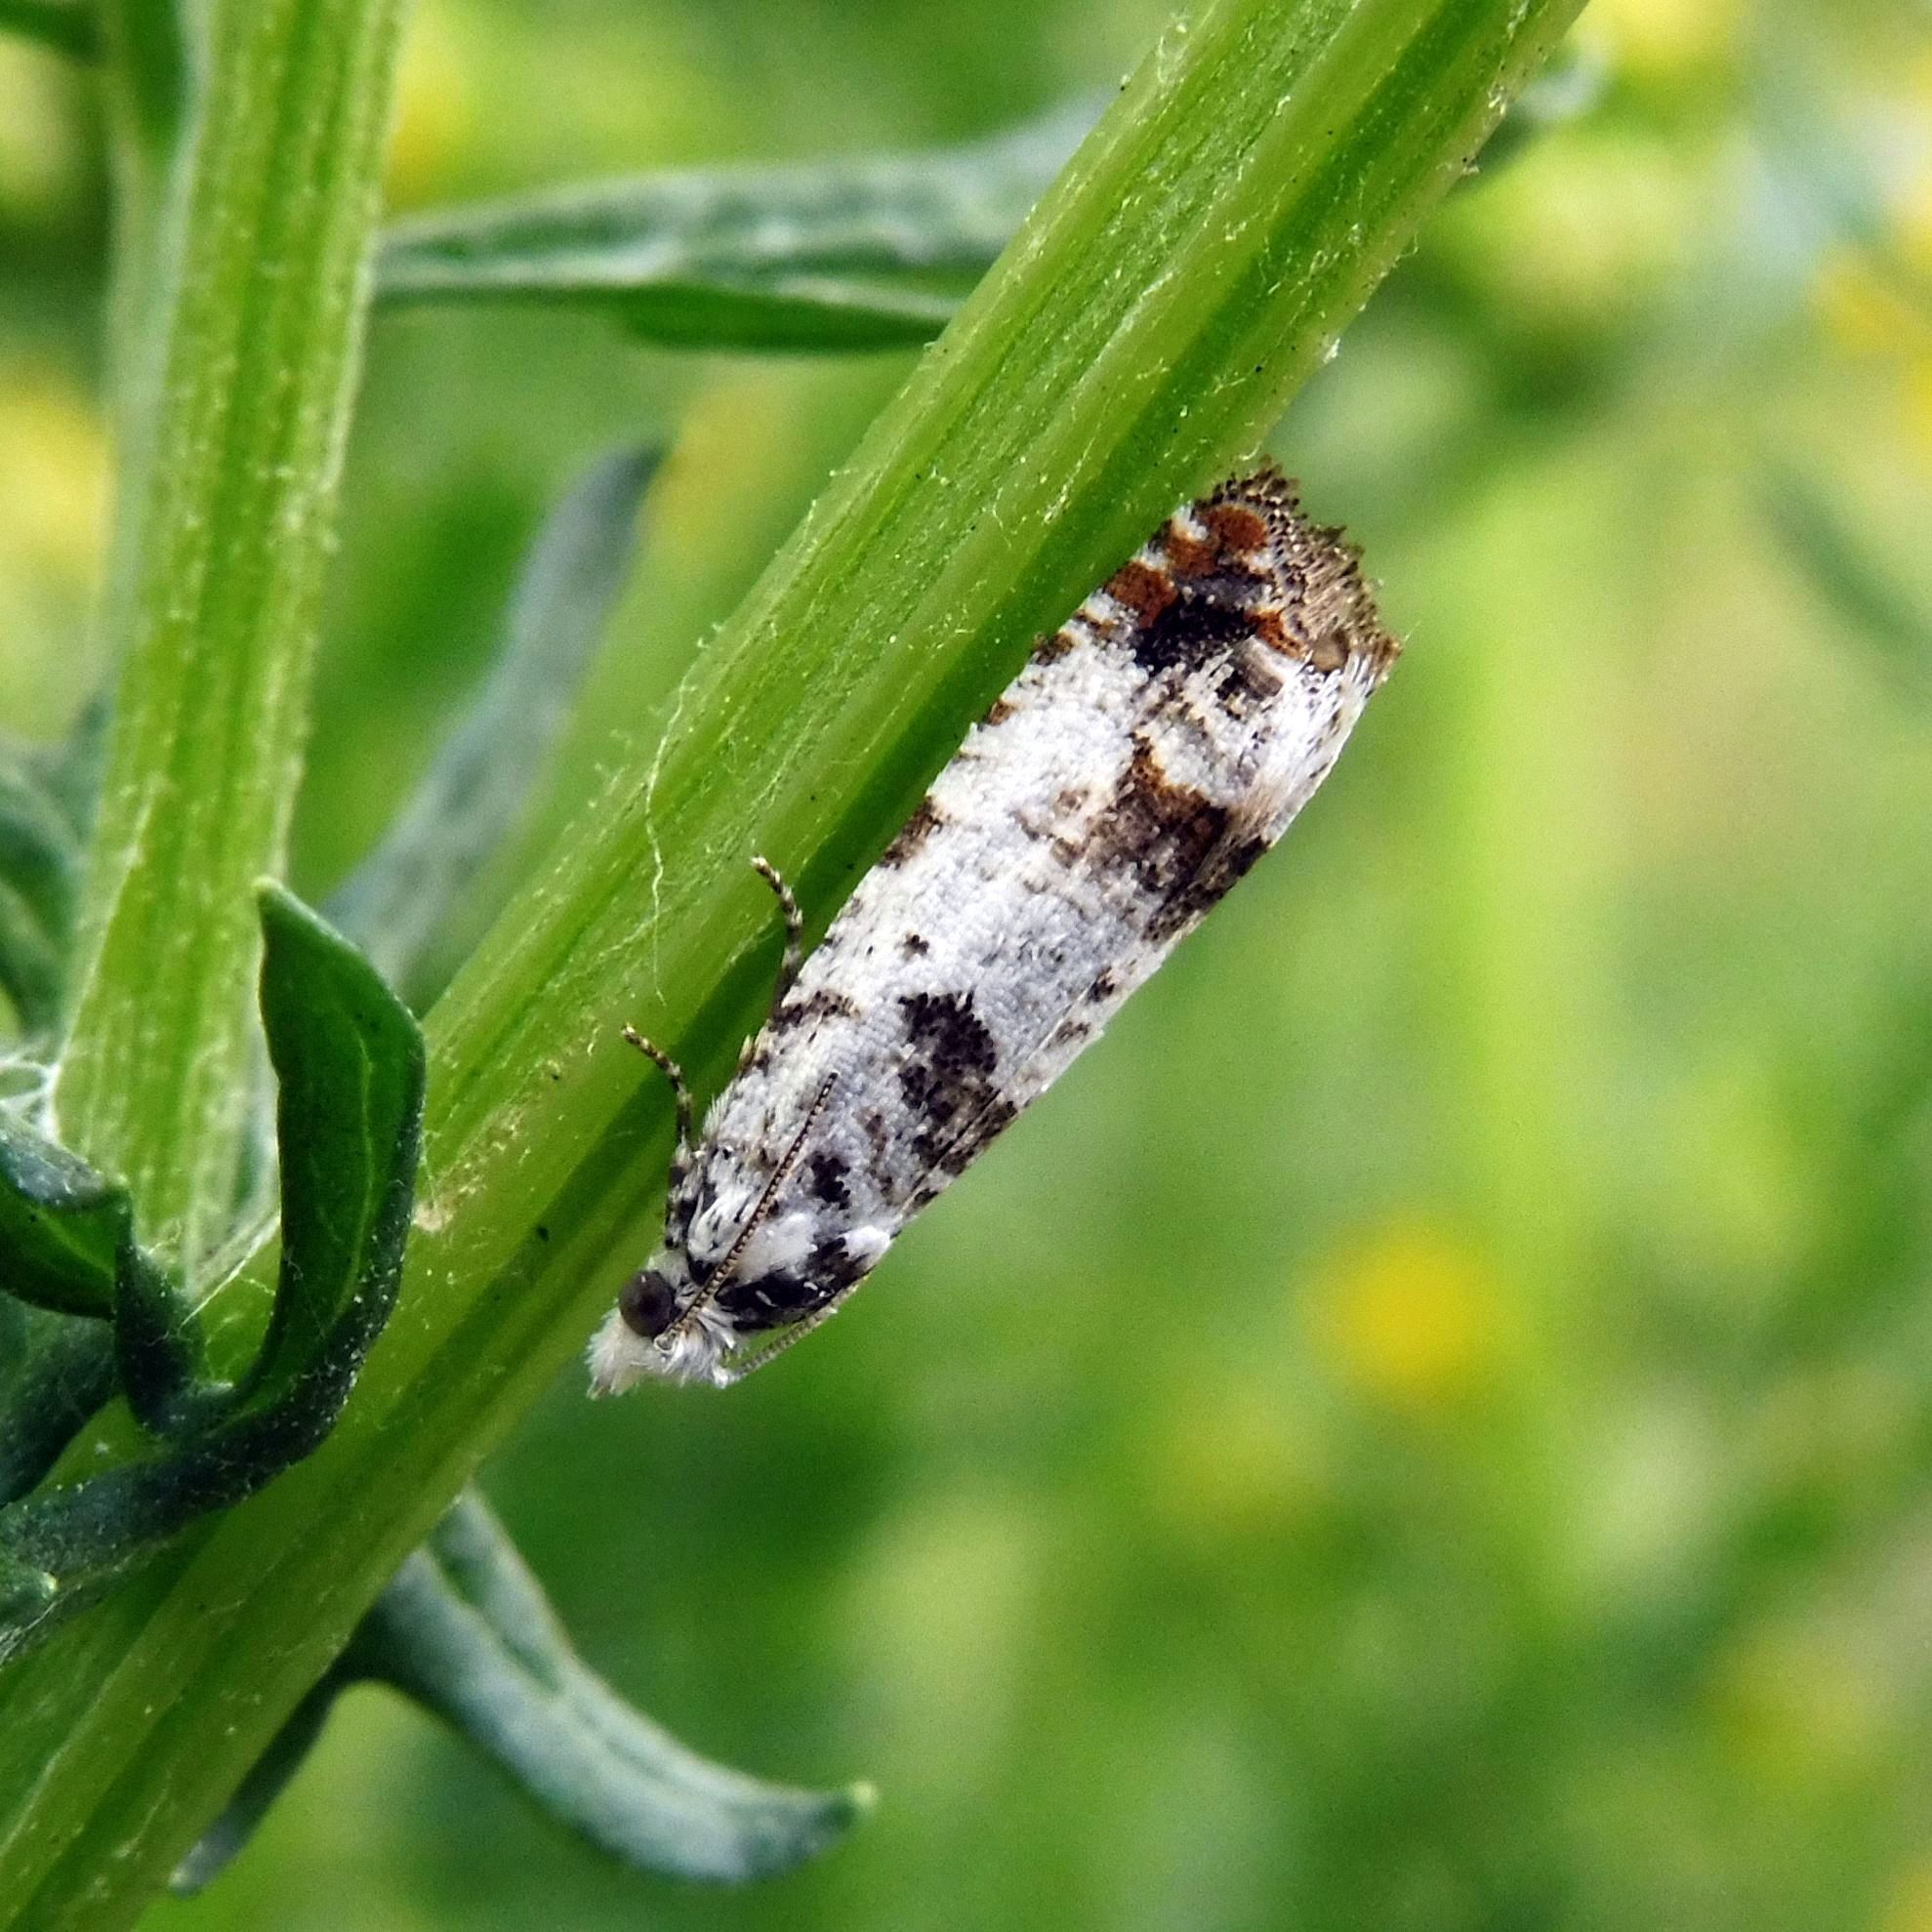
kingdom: Animalia
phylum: Arthropoda
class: Insecta
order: Lepidoptera
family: Tortricidae
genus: Eucosma
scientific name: Eucosma campoliliana
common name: Marbled bell
